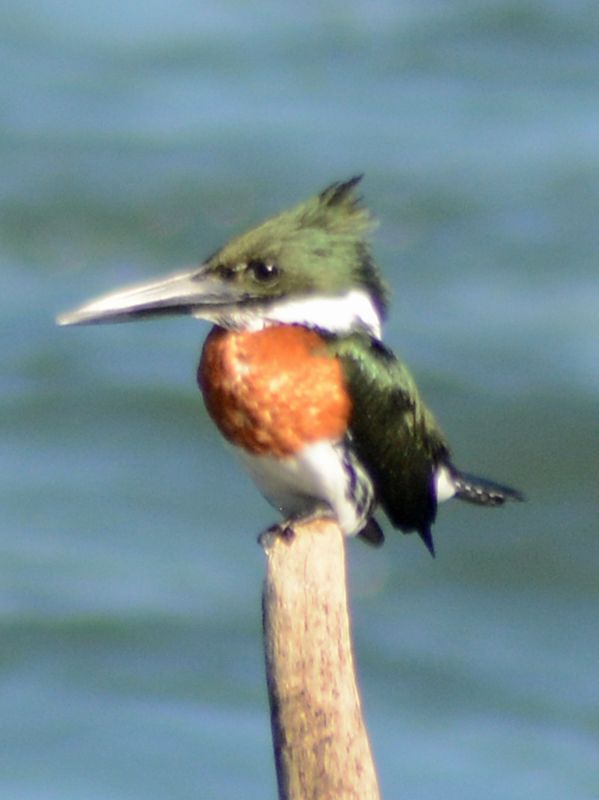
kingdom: Animalia
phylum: Chordata
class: Aves
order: Coraciiformes
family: Alcedinidae
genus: Chloroceryle
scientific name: Chloroceryle amazona
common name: Amazon kingfisher
